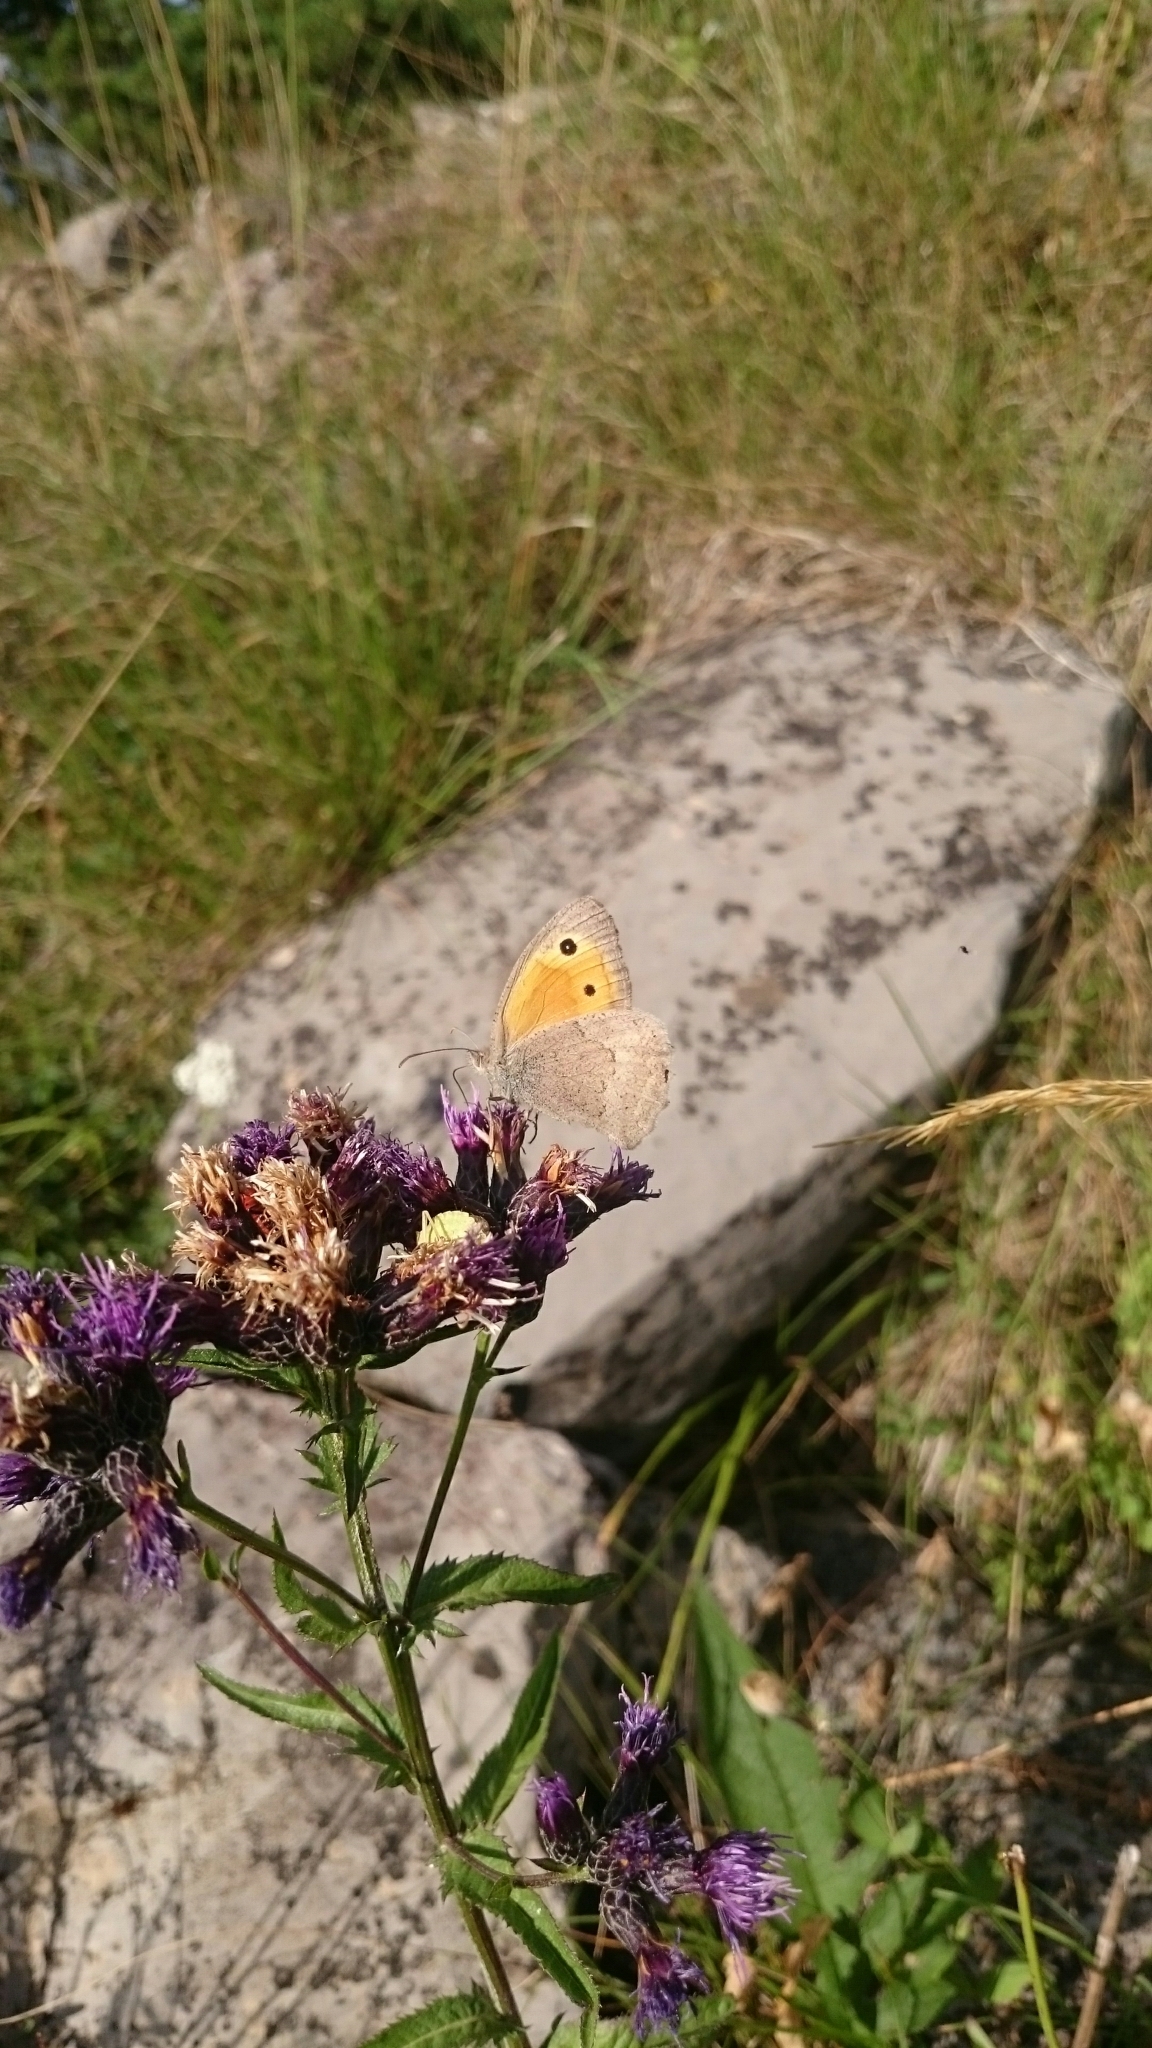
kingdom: Animalia
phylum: Arthropoda
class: Insecta
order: Lepidoptera
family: Nymphalidae
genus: Hyponephele
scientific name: Hyponephele lycaon
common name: Dusky meadow brown
